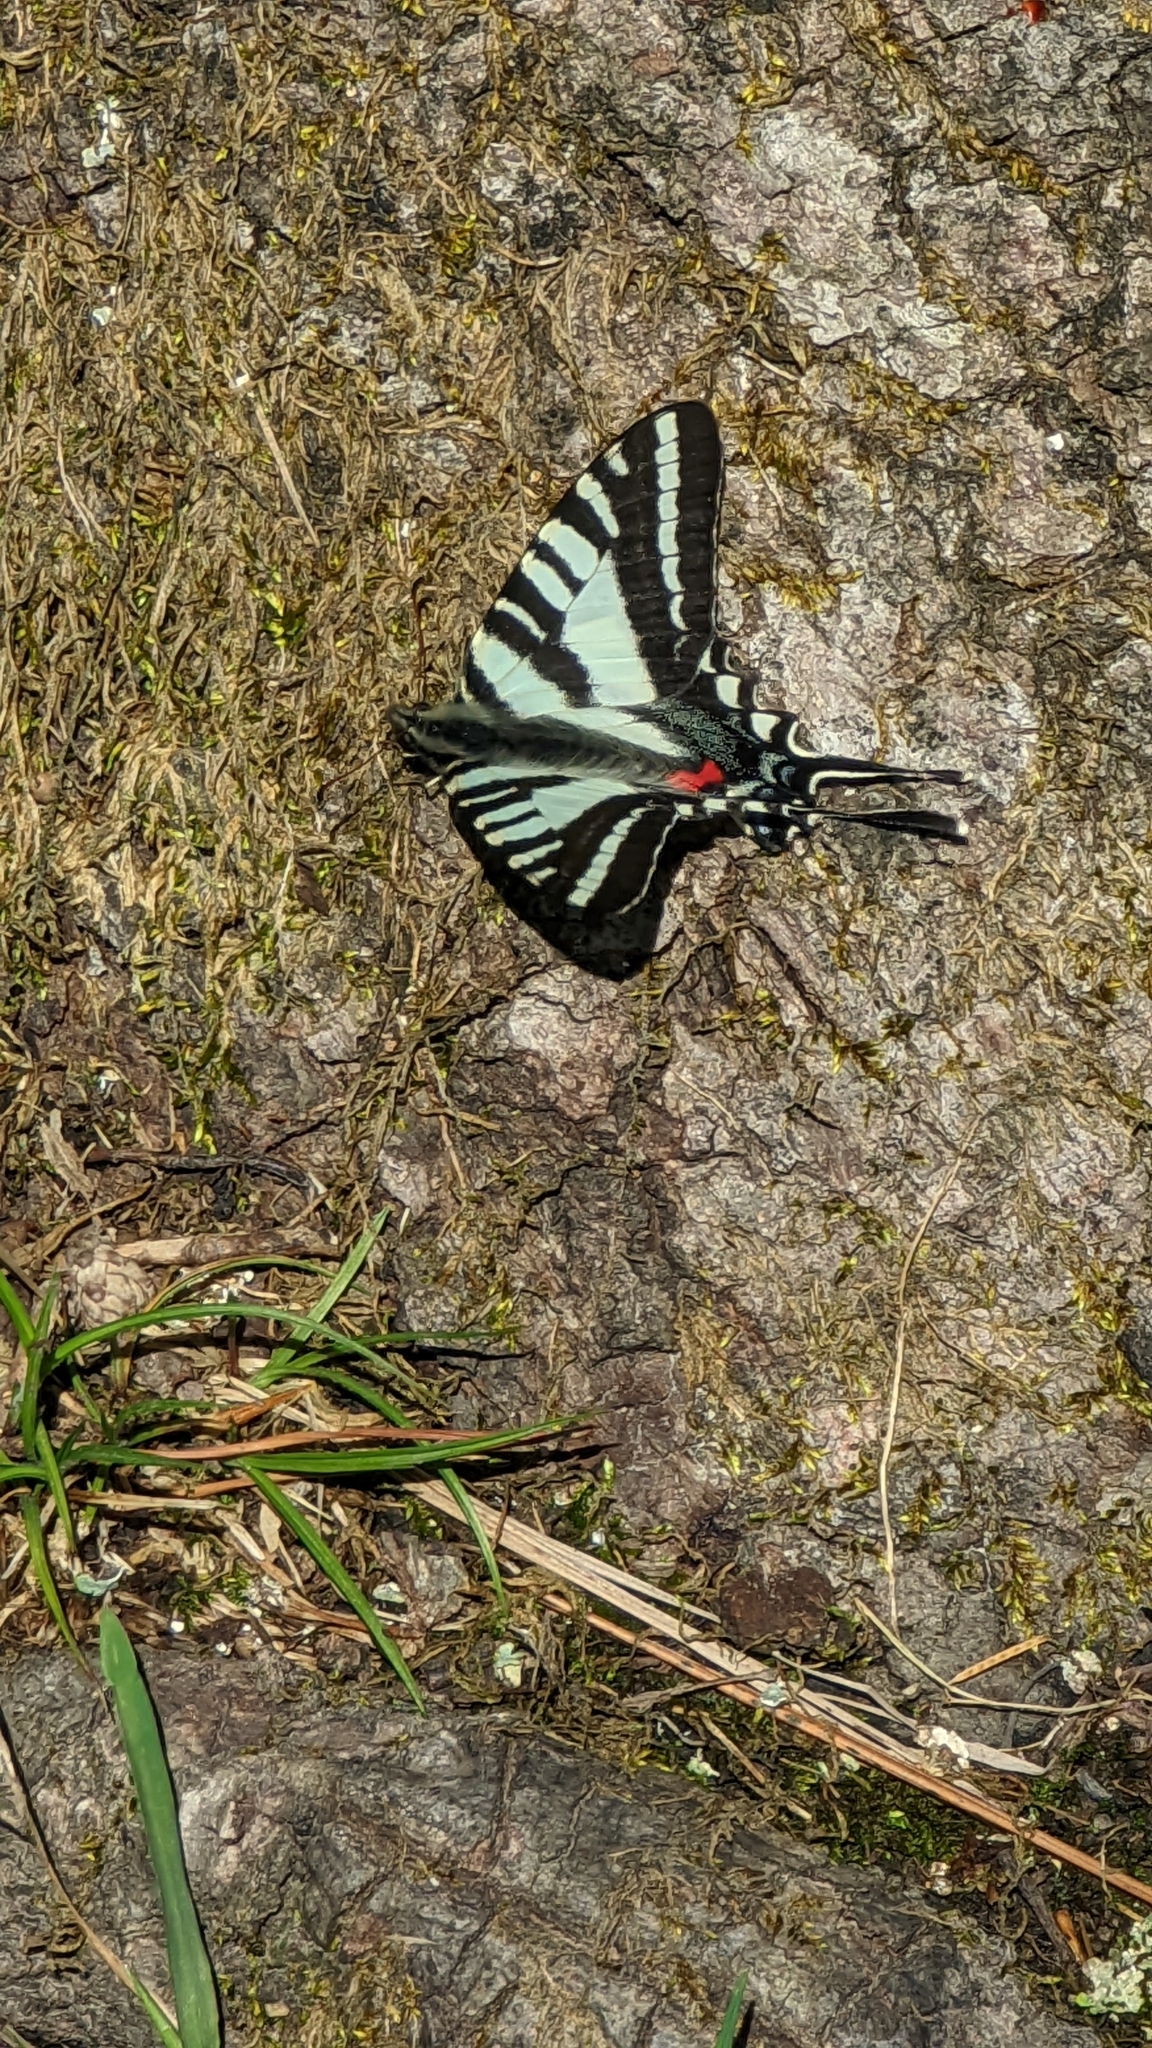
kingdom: Animalia
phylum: Arthropoda
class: Insecta
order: Lepidoptera
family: Papilionidae
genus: Protographium
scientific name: Protographium marcellus
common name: Zebra swallowtail
